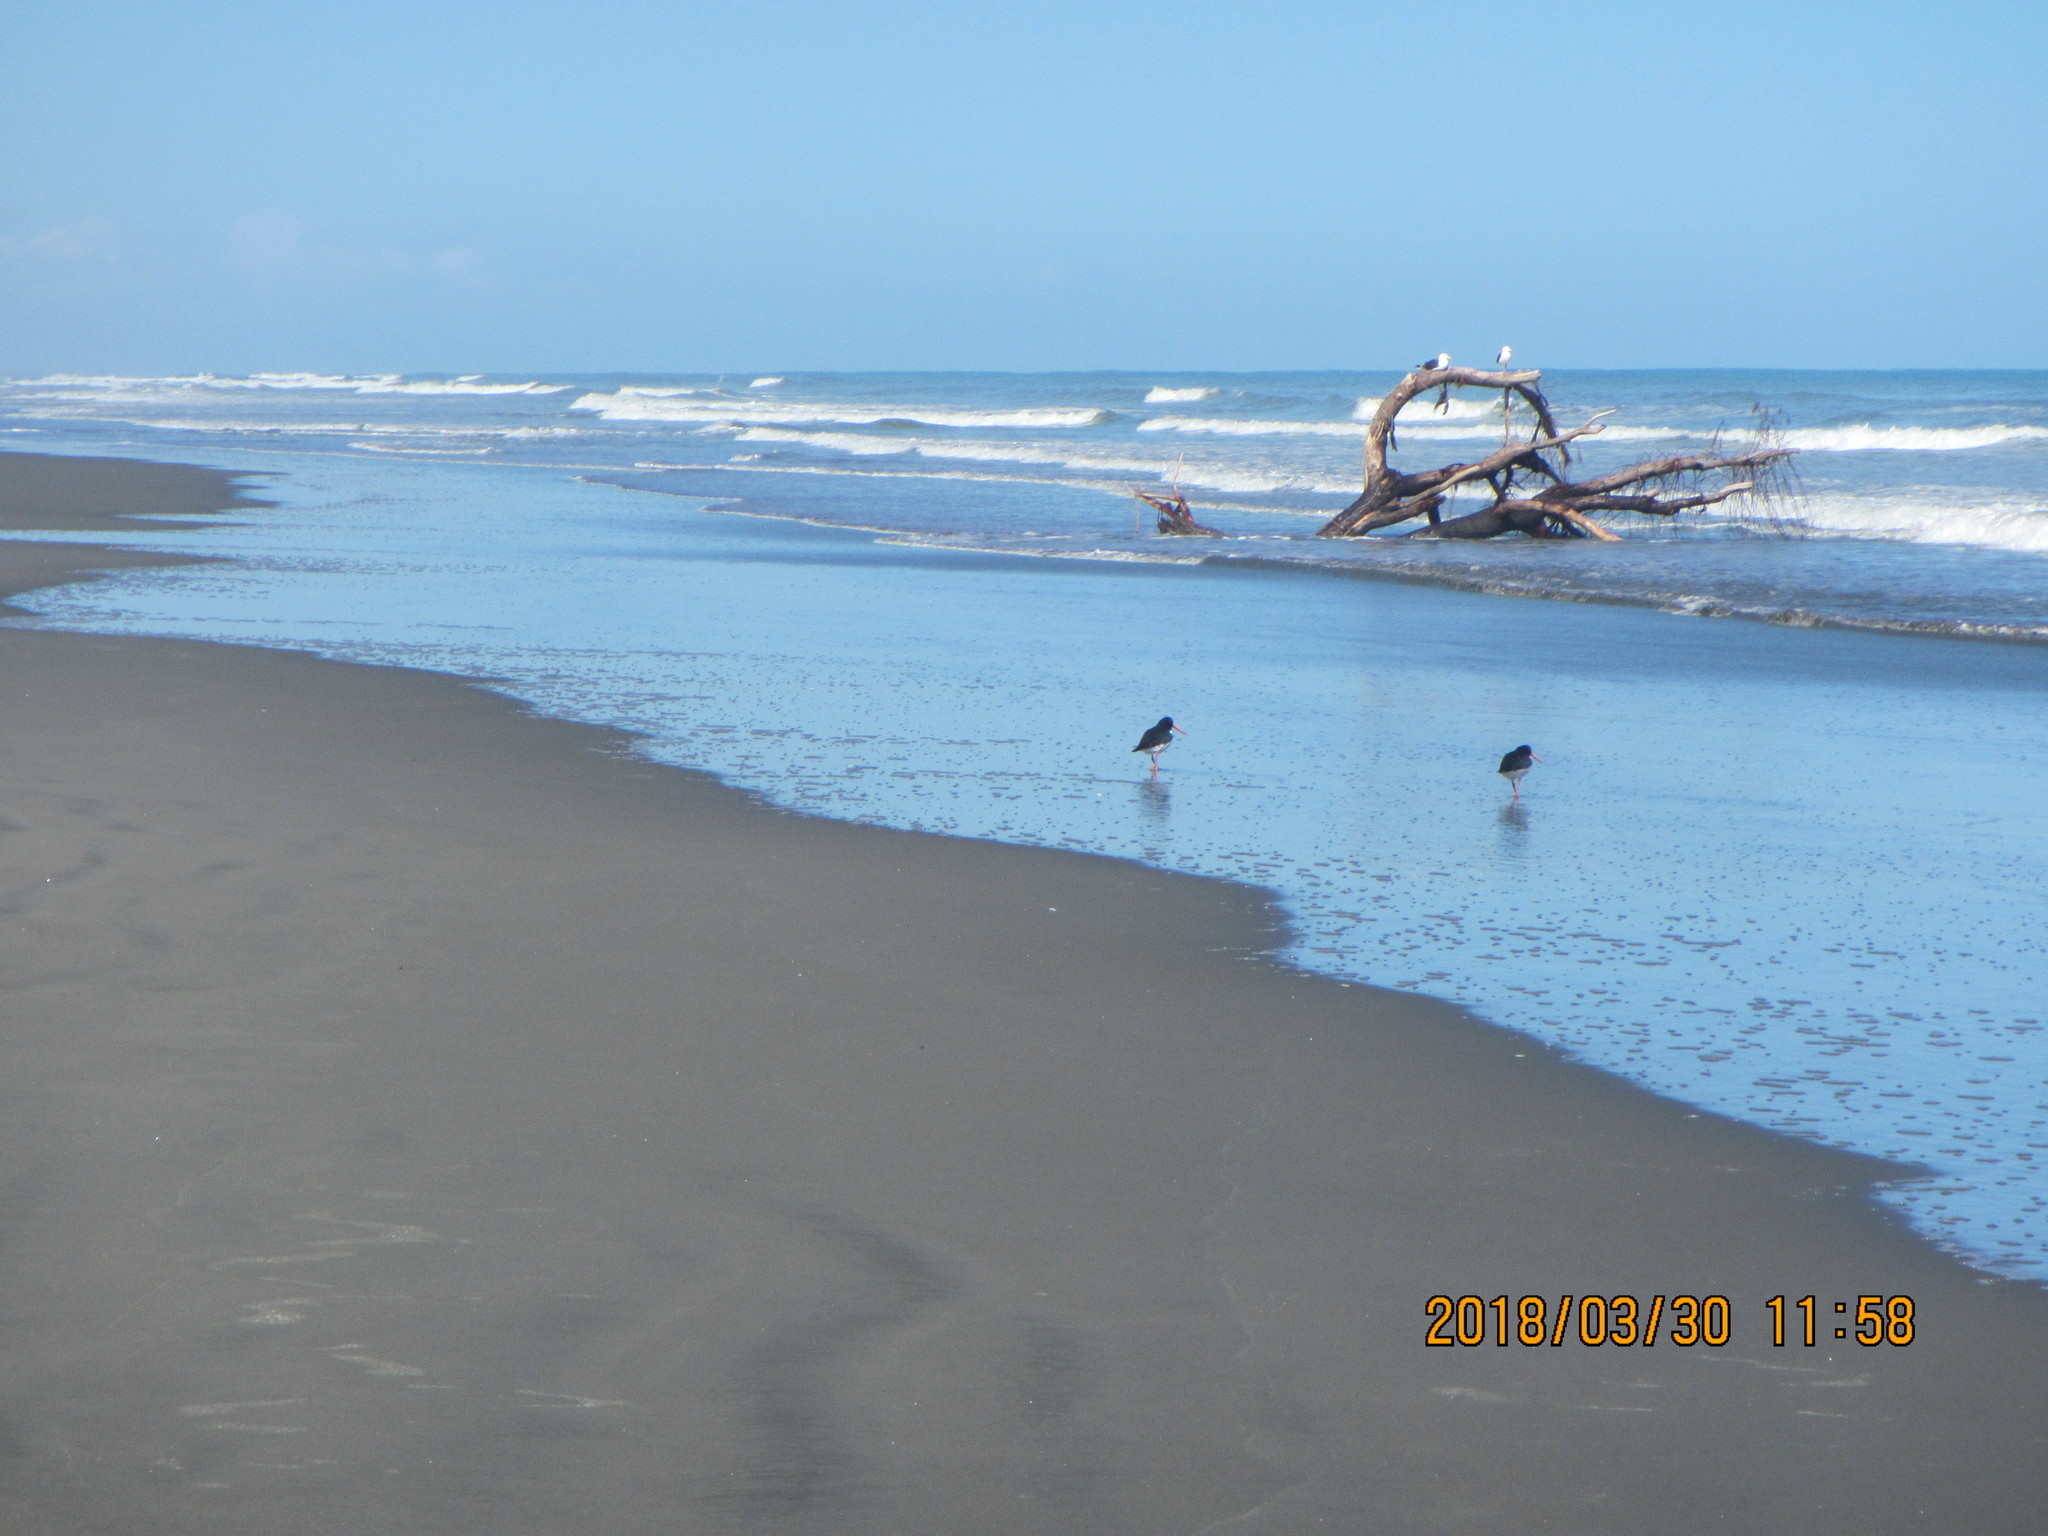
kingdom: Animalia
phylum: Chordata
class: Aves
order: Charadriiformes
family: Haematopodidae
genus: Haematopus
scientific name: Haematopus finschi
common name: South island oystercatcher
